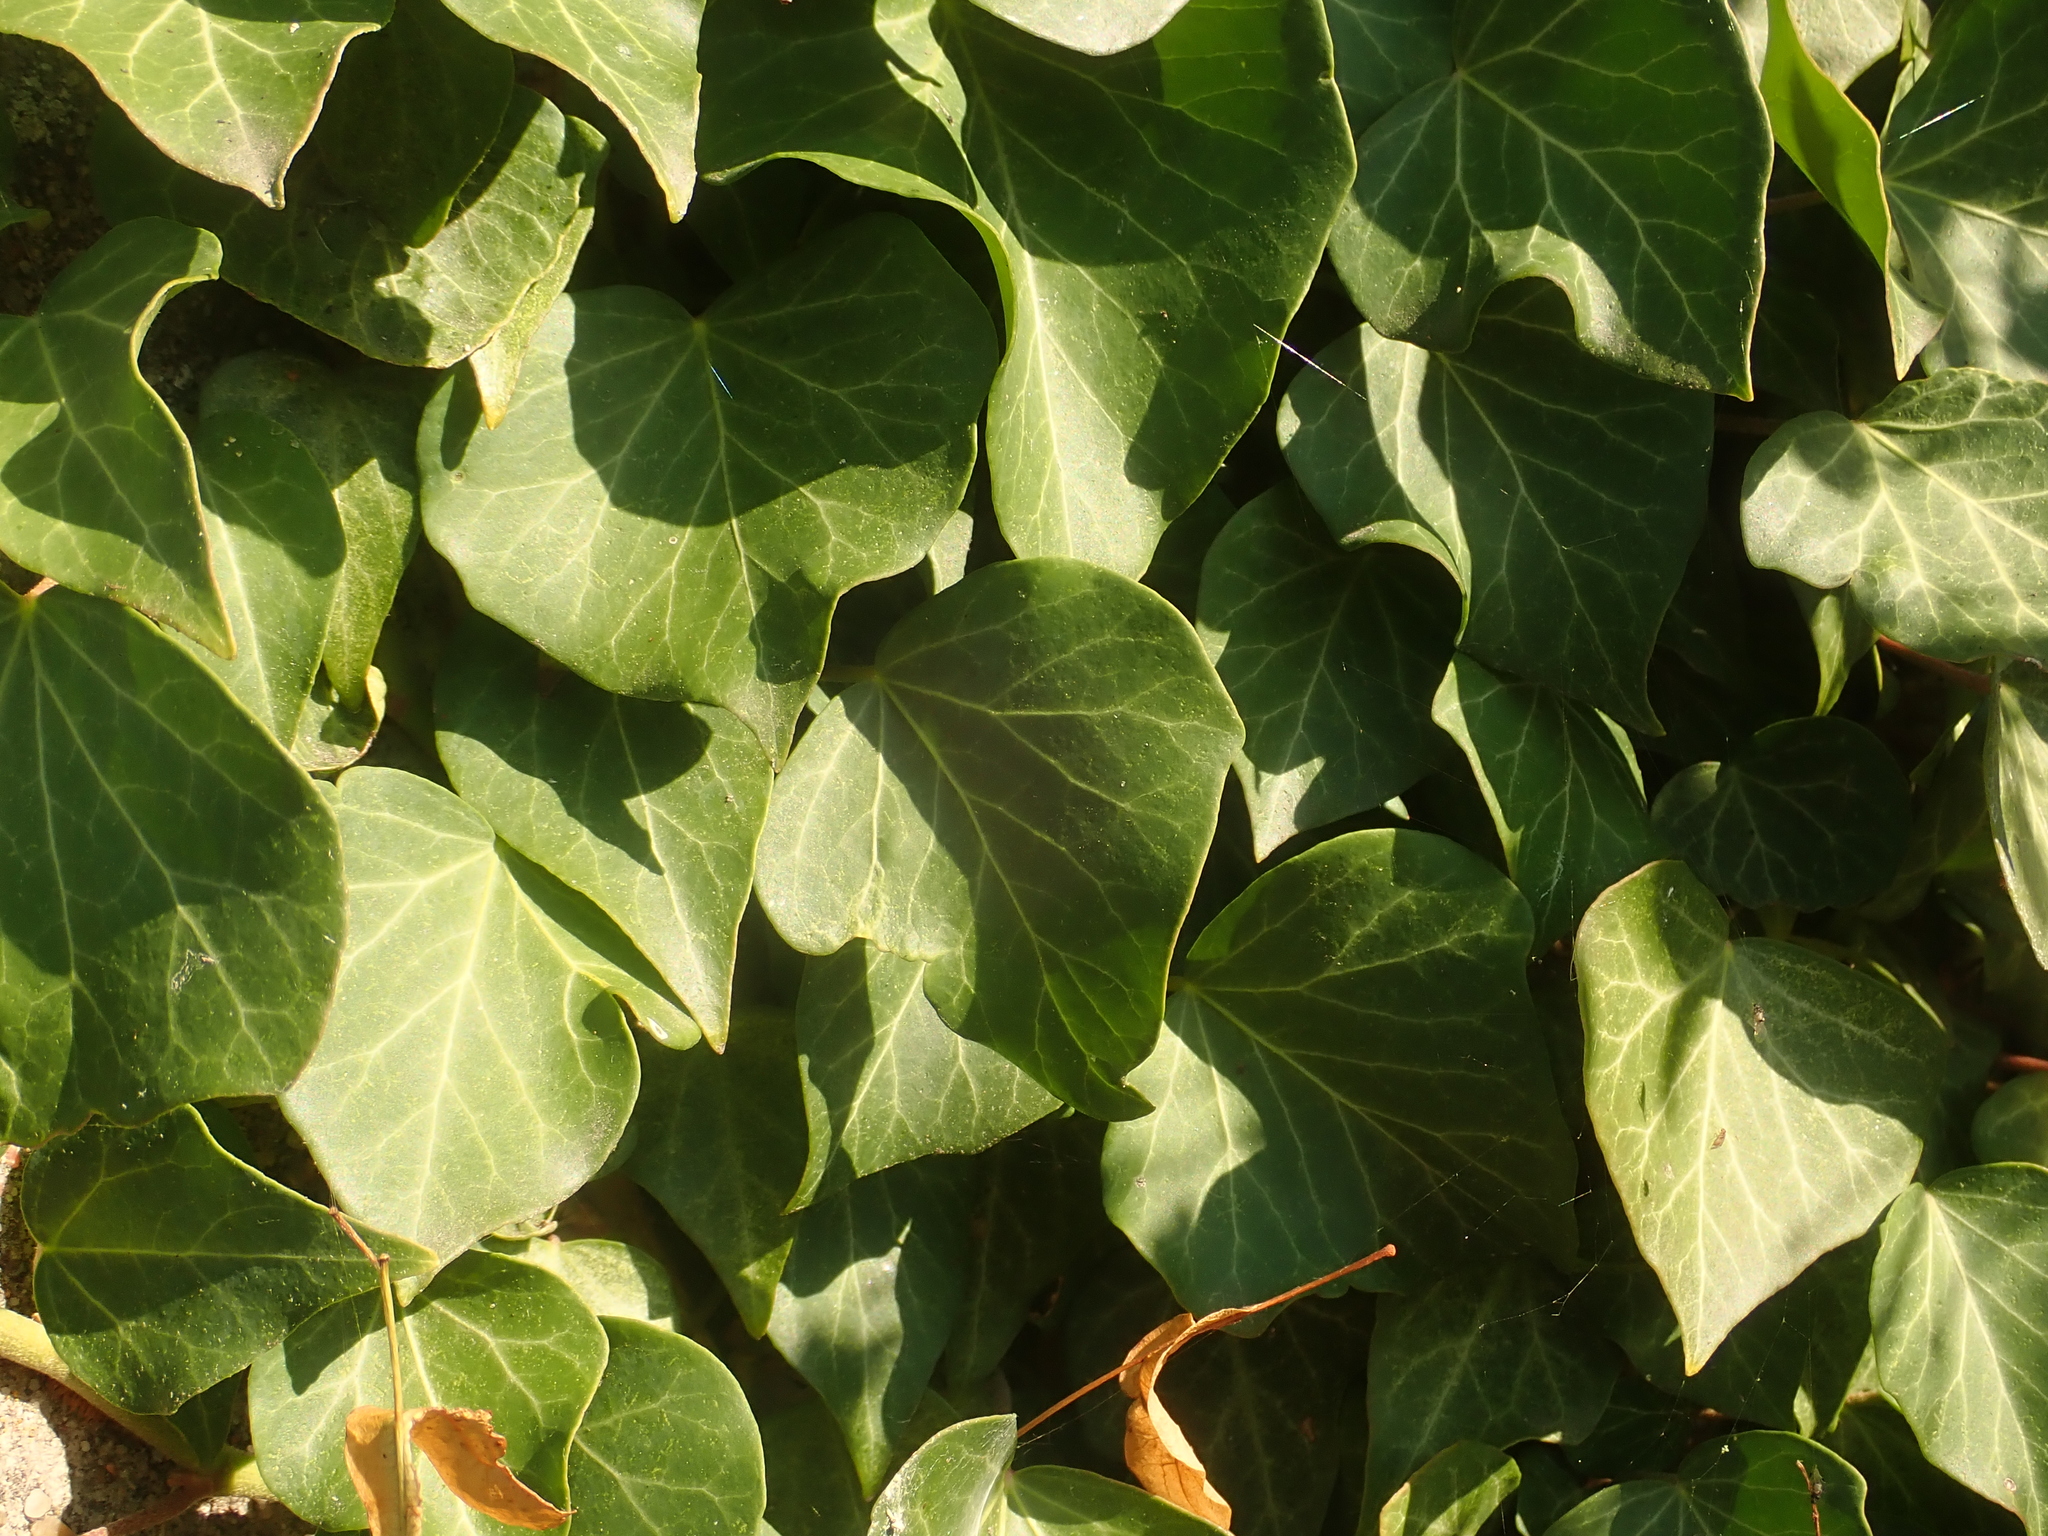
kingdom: Plantae
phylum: Tracheophyta
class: Magnoliopsida
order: Apiales
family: Araliaceae
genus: Hedera
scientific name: Hedera helix
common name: Ivy
